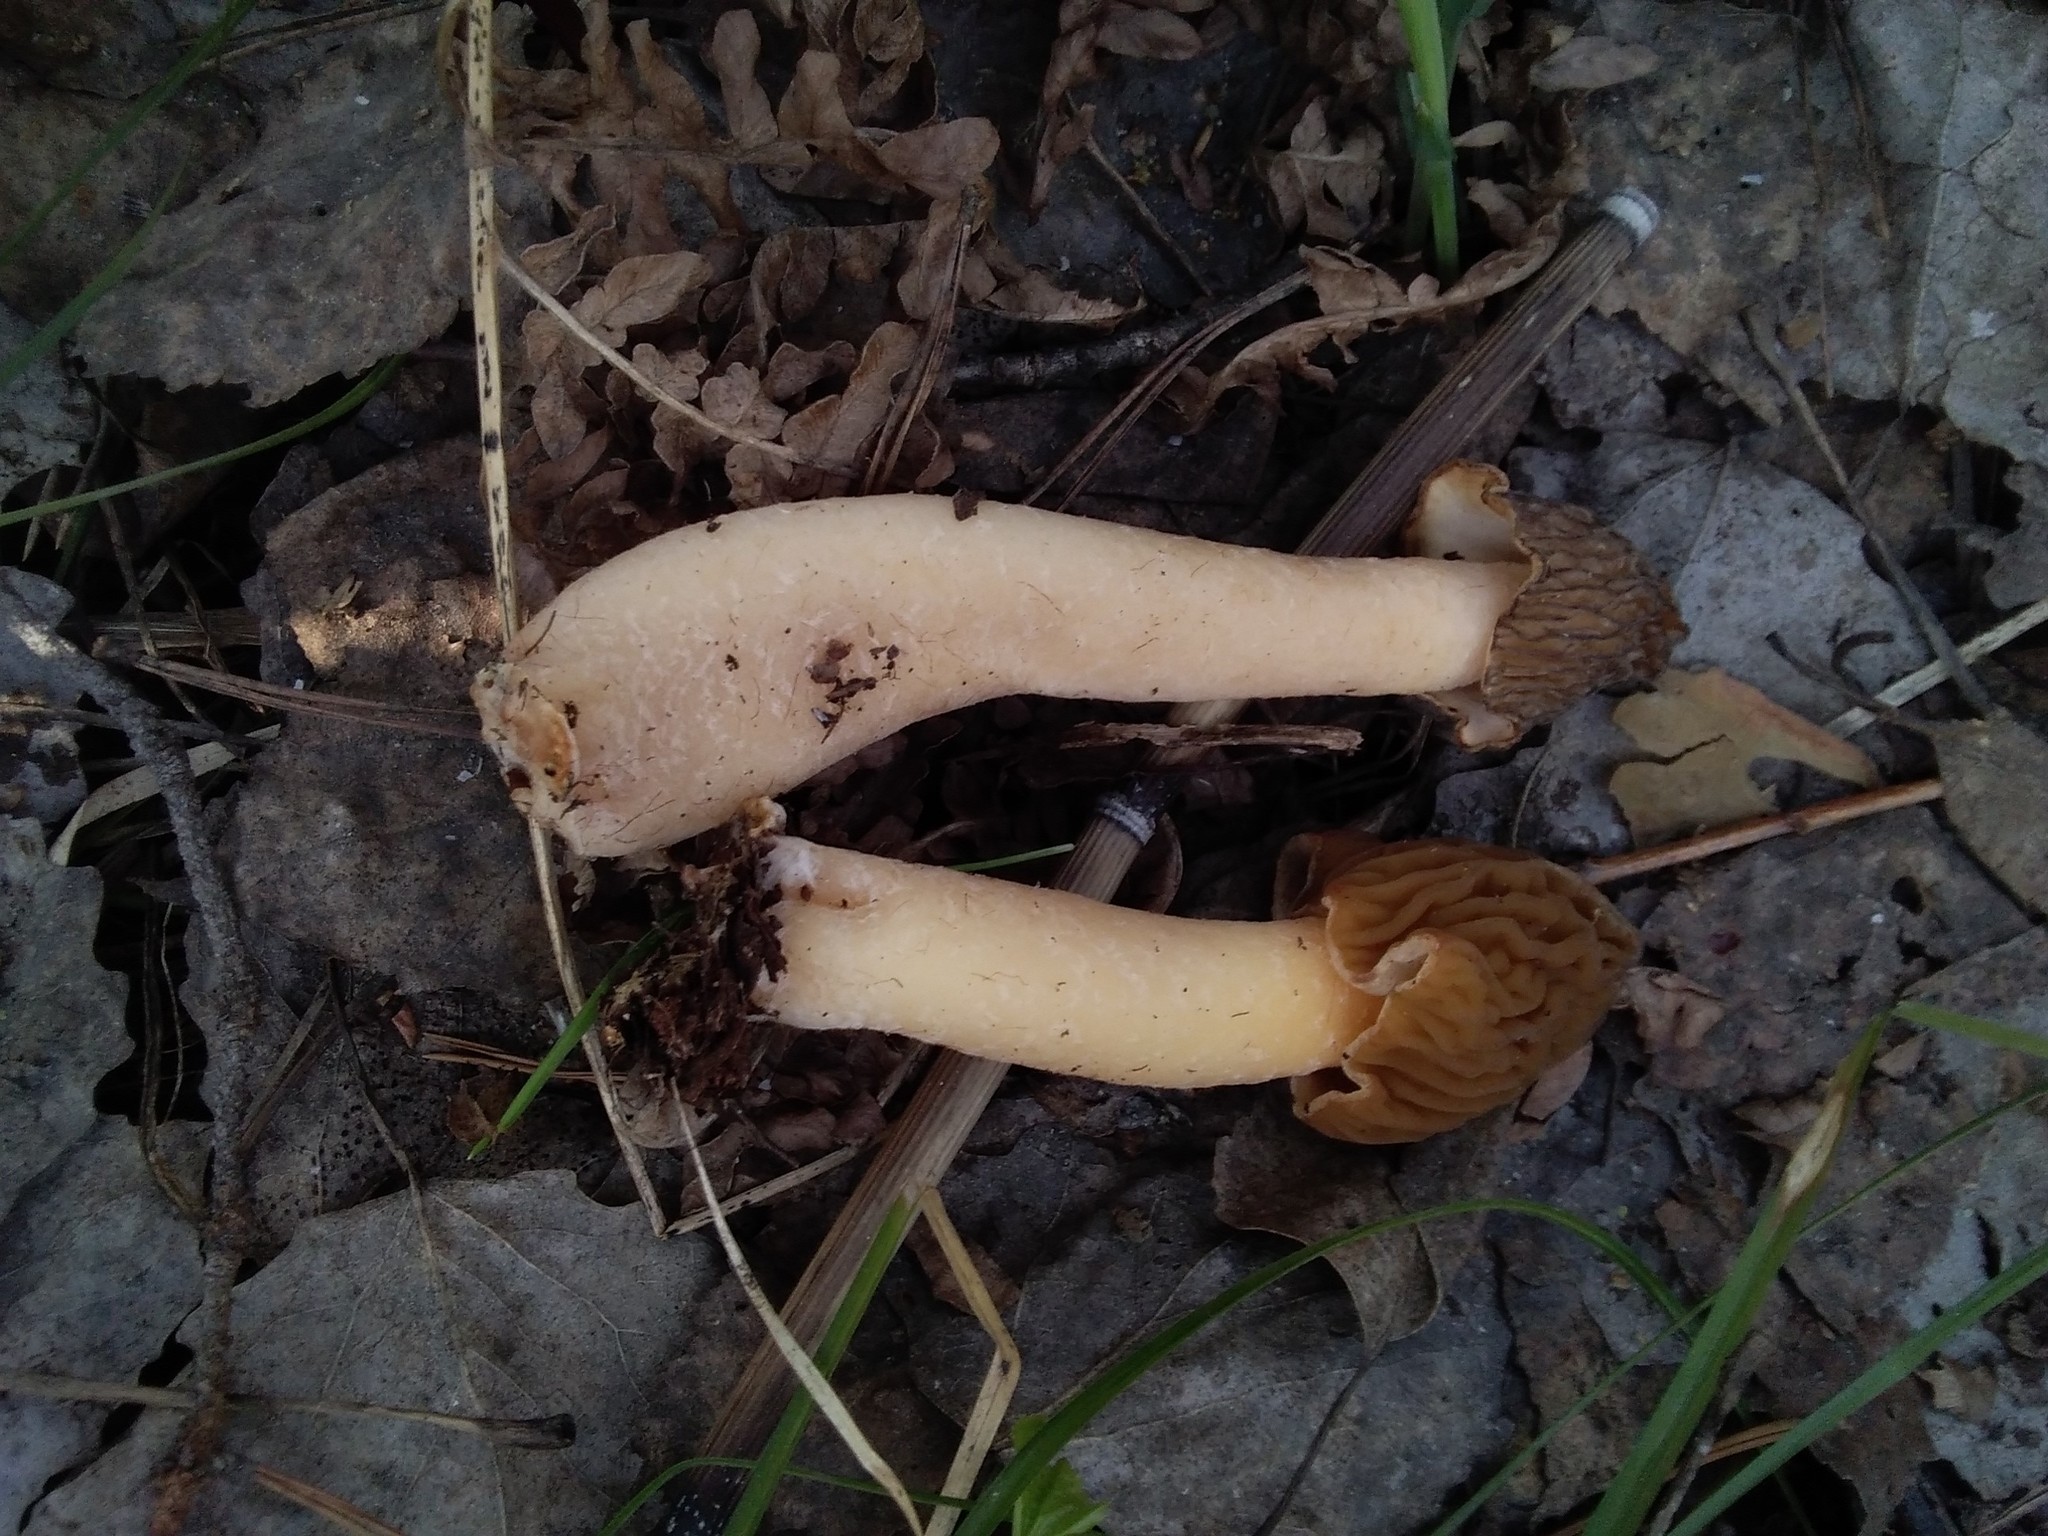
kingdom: Fungi
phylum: Ascomycota
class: Pezizomycetes
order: Pezizales
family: Morchellaceae
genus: Verpa
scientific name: Verpa bohemica
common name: Wrinkled thimble morel
